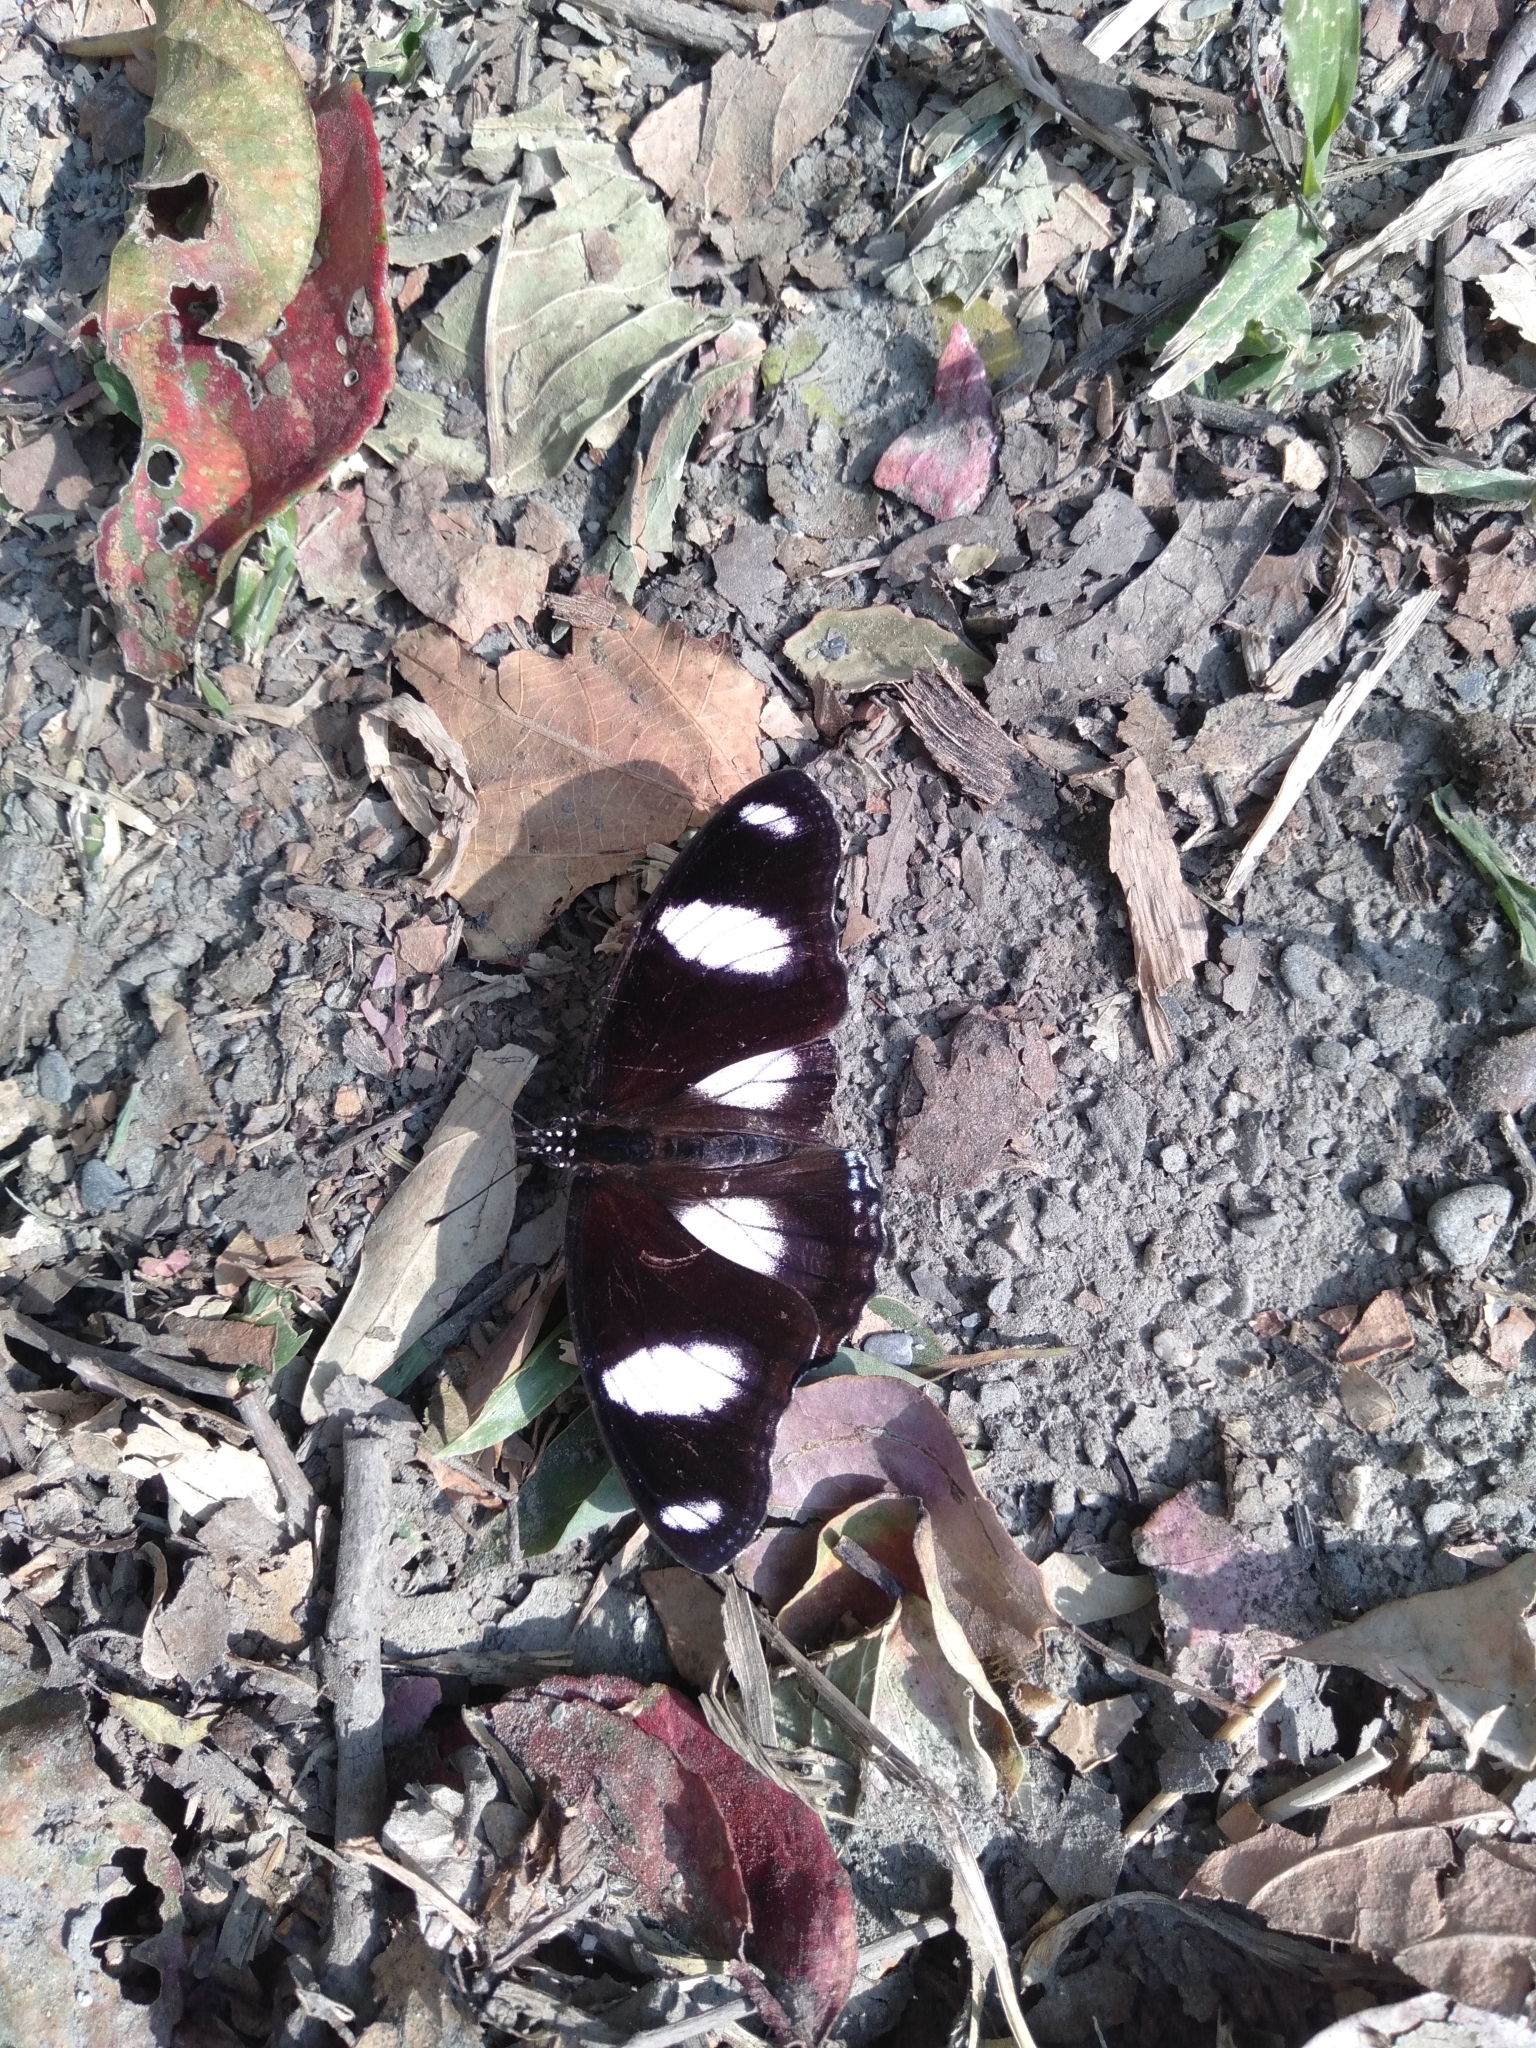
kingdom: Animalia
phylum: Arthropoda
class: Insecta
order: Lepidoptera
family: Nymphalidae
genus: Hypolimnas
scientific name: Hypolimnas misippus
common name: False plain tiger
